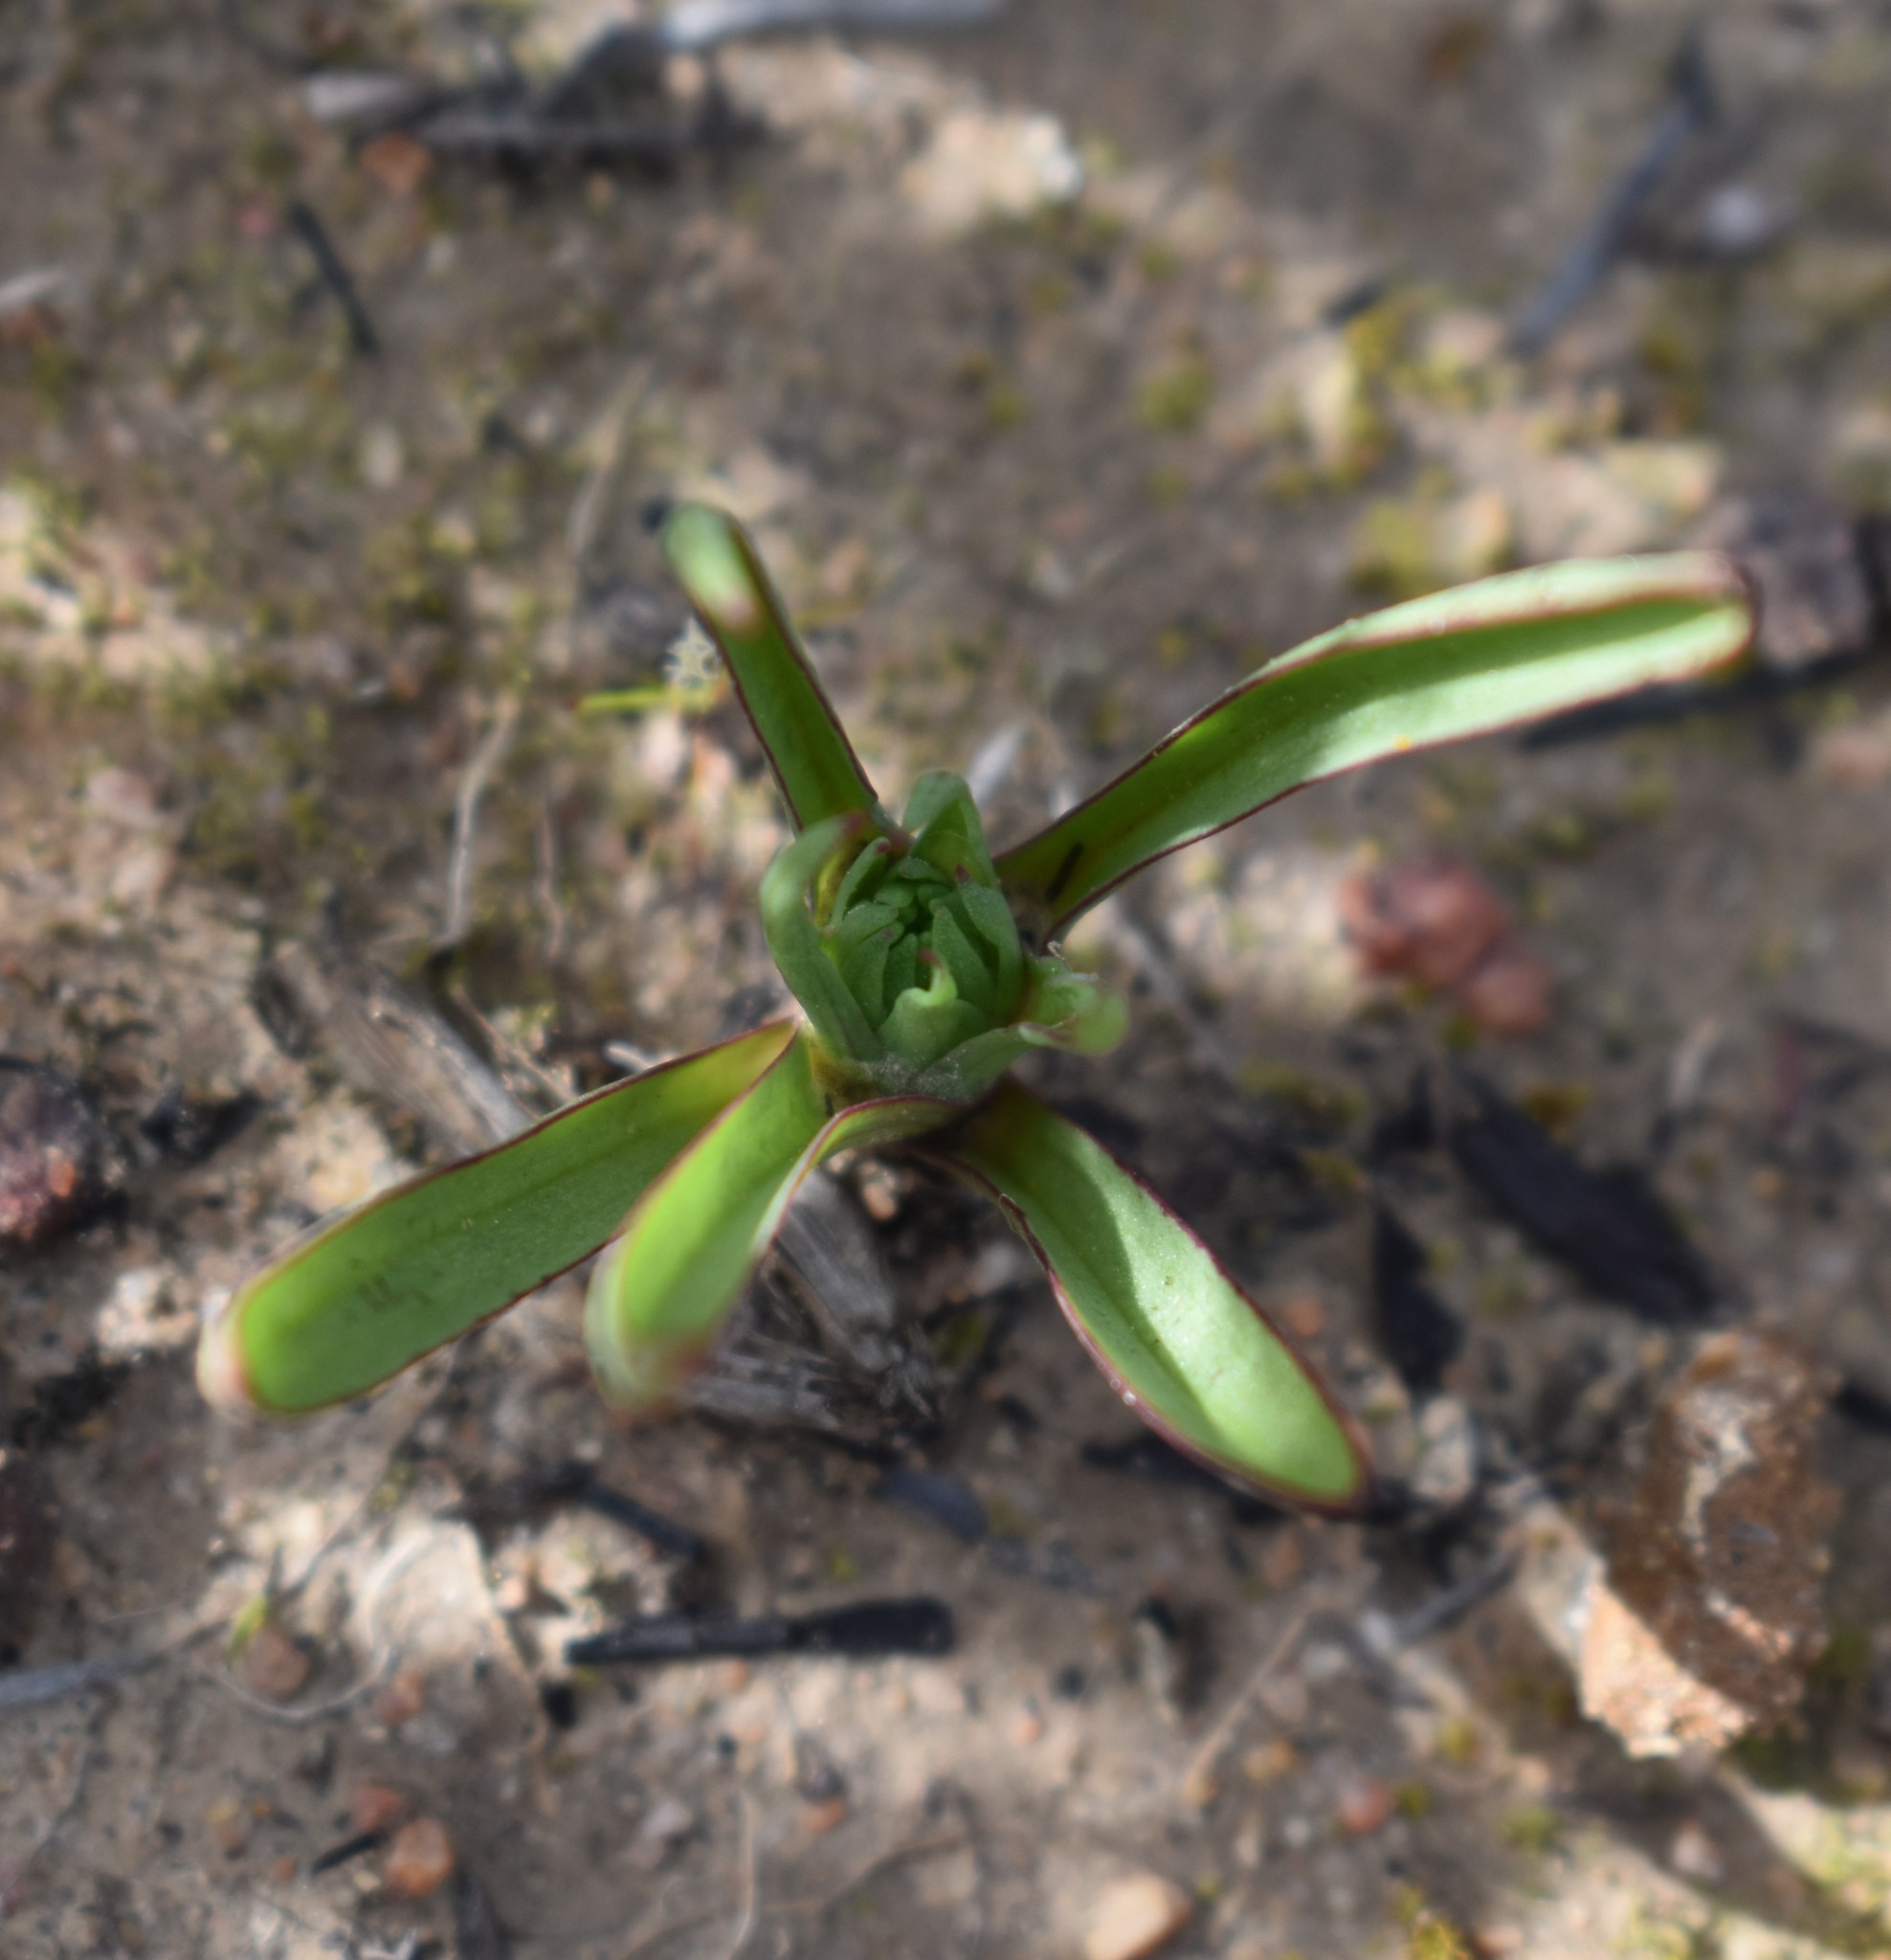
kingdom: Plantae
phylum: Tracheophyta
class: Liliopsida
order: Asparagales
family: Orchidaceae
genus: Disa
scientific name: Disa bracteata
